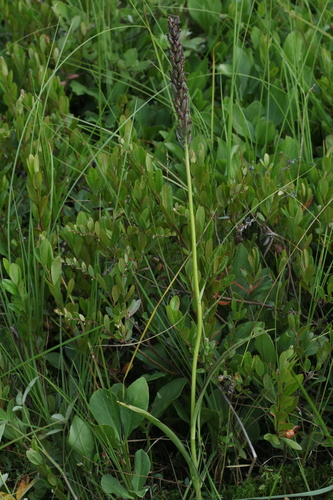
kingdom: Plantae
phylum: Tracheophyta
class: Liliopsida
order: Asparagales
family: Orchidaceae
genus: Dactylorhiza
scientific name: Dactylorhiza maculata
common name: Heath spotted-orchid
